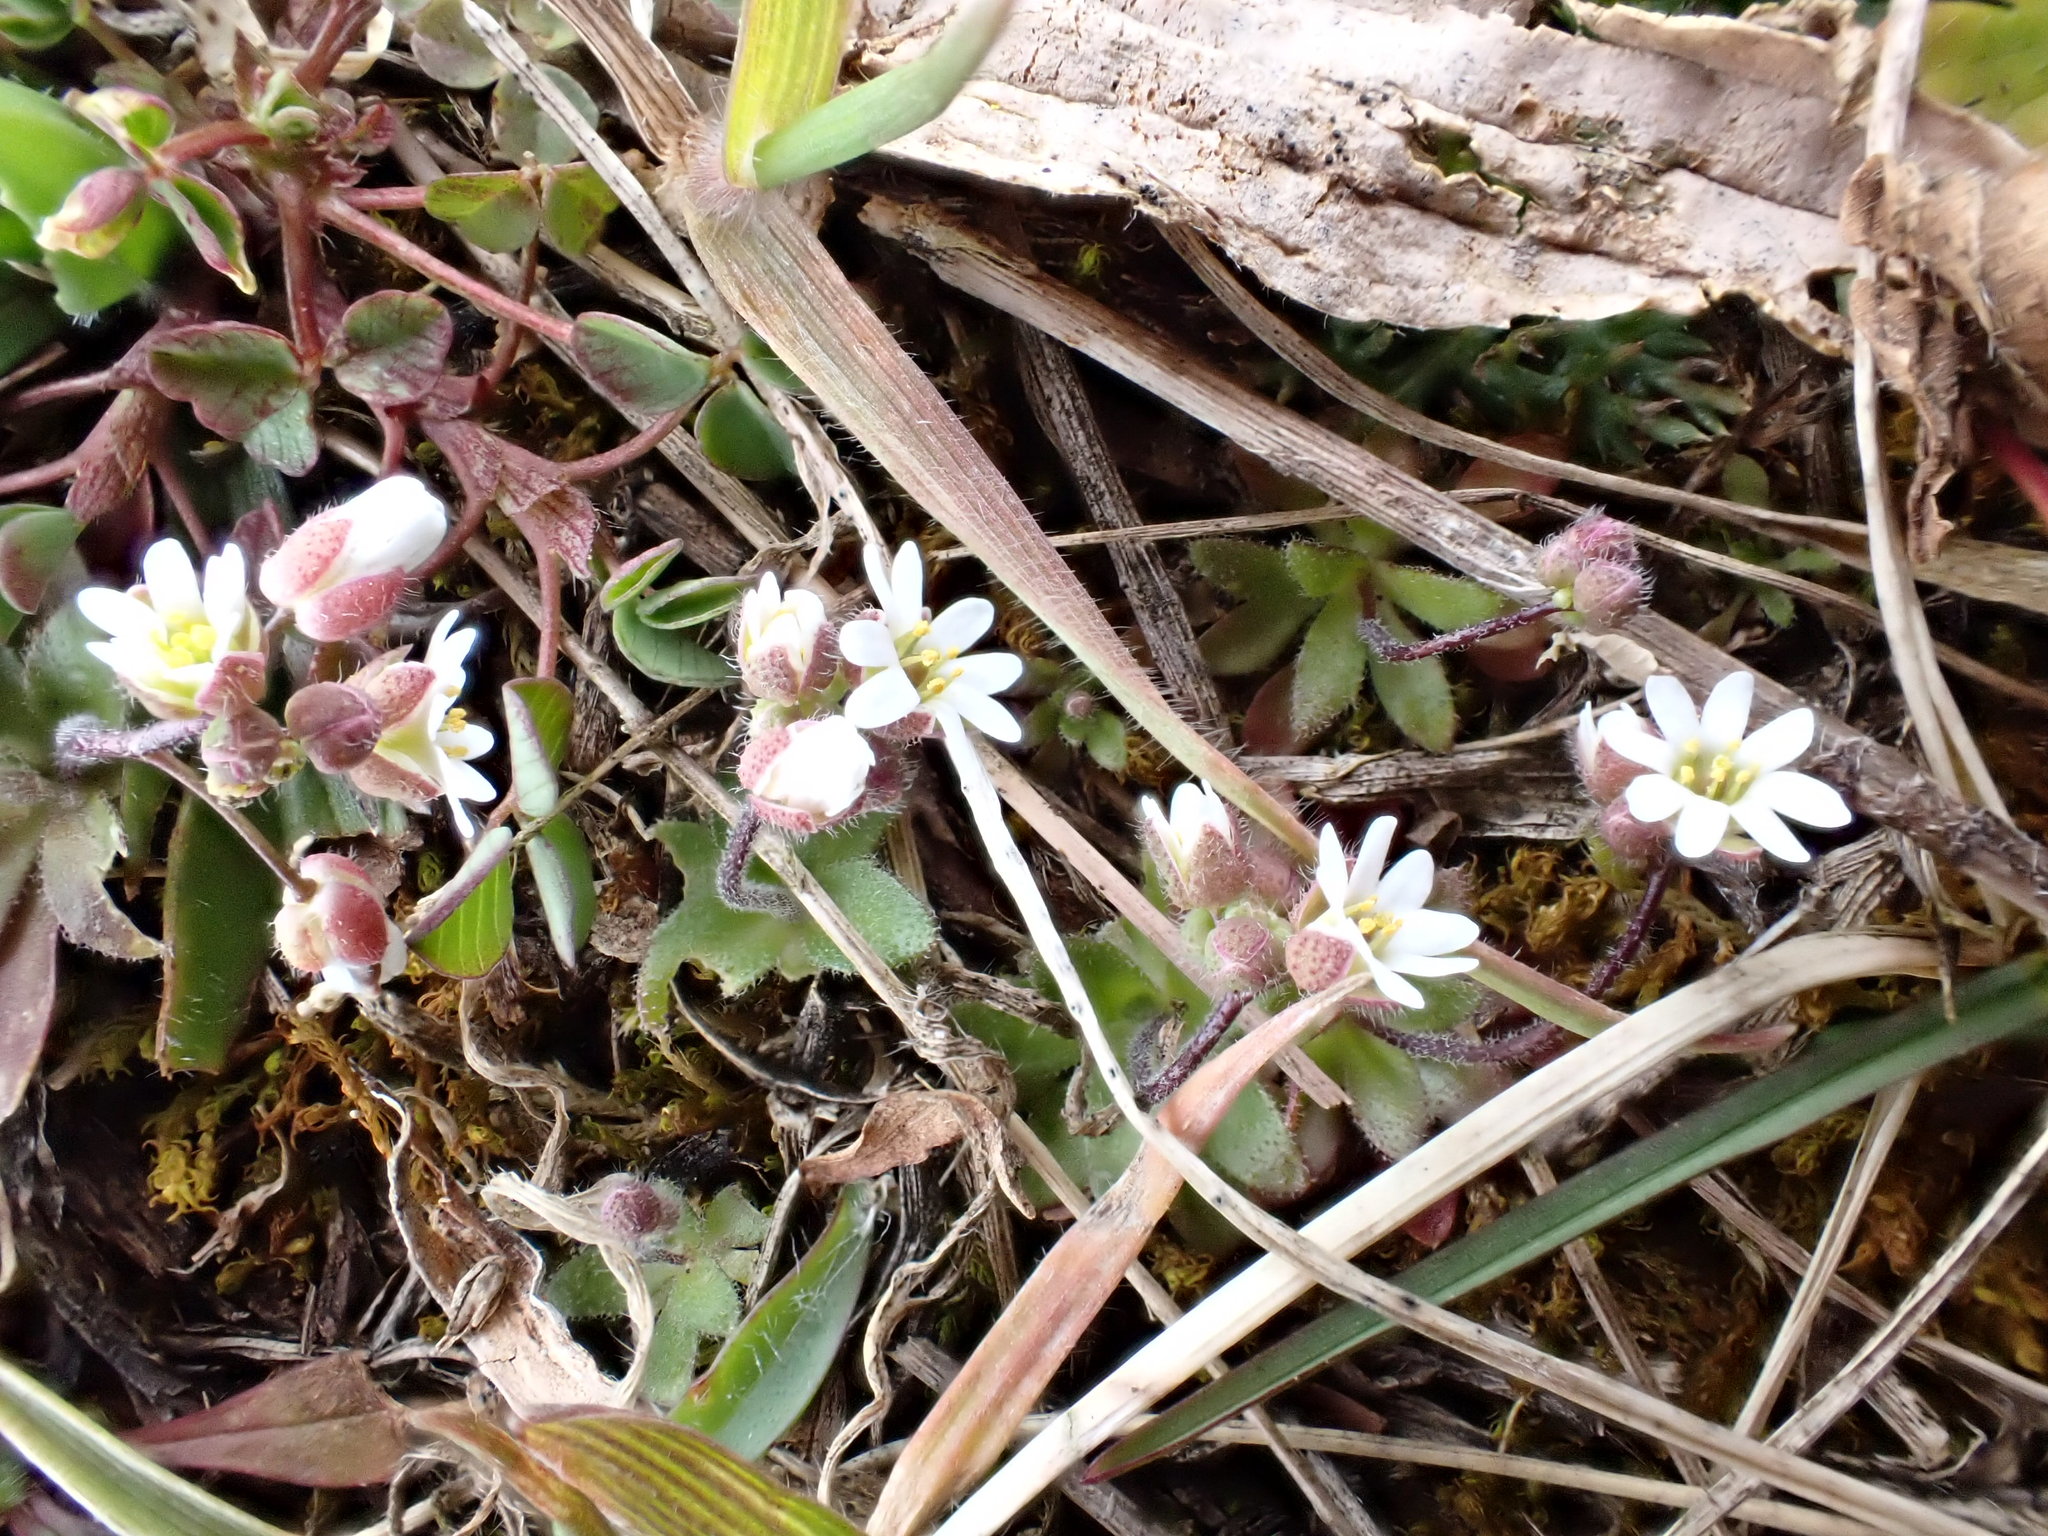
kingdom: Plantae
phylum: Tracheophyta
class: Magnoliopsida
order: Brassicales
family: Brassicaceae
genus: Draba
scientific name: Draba verna
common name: Spring draba
